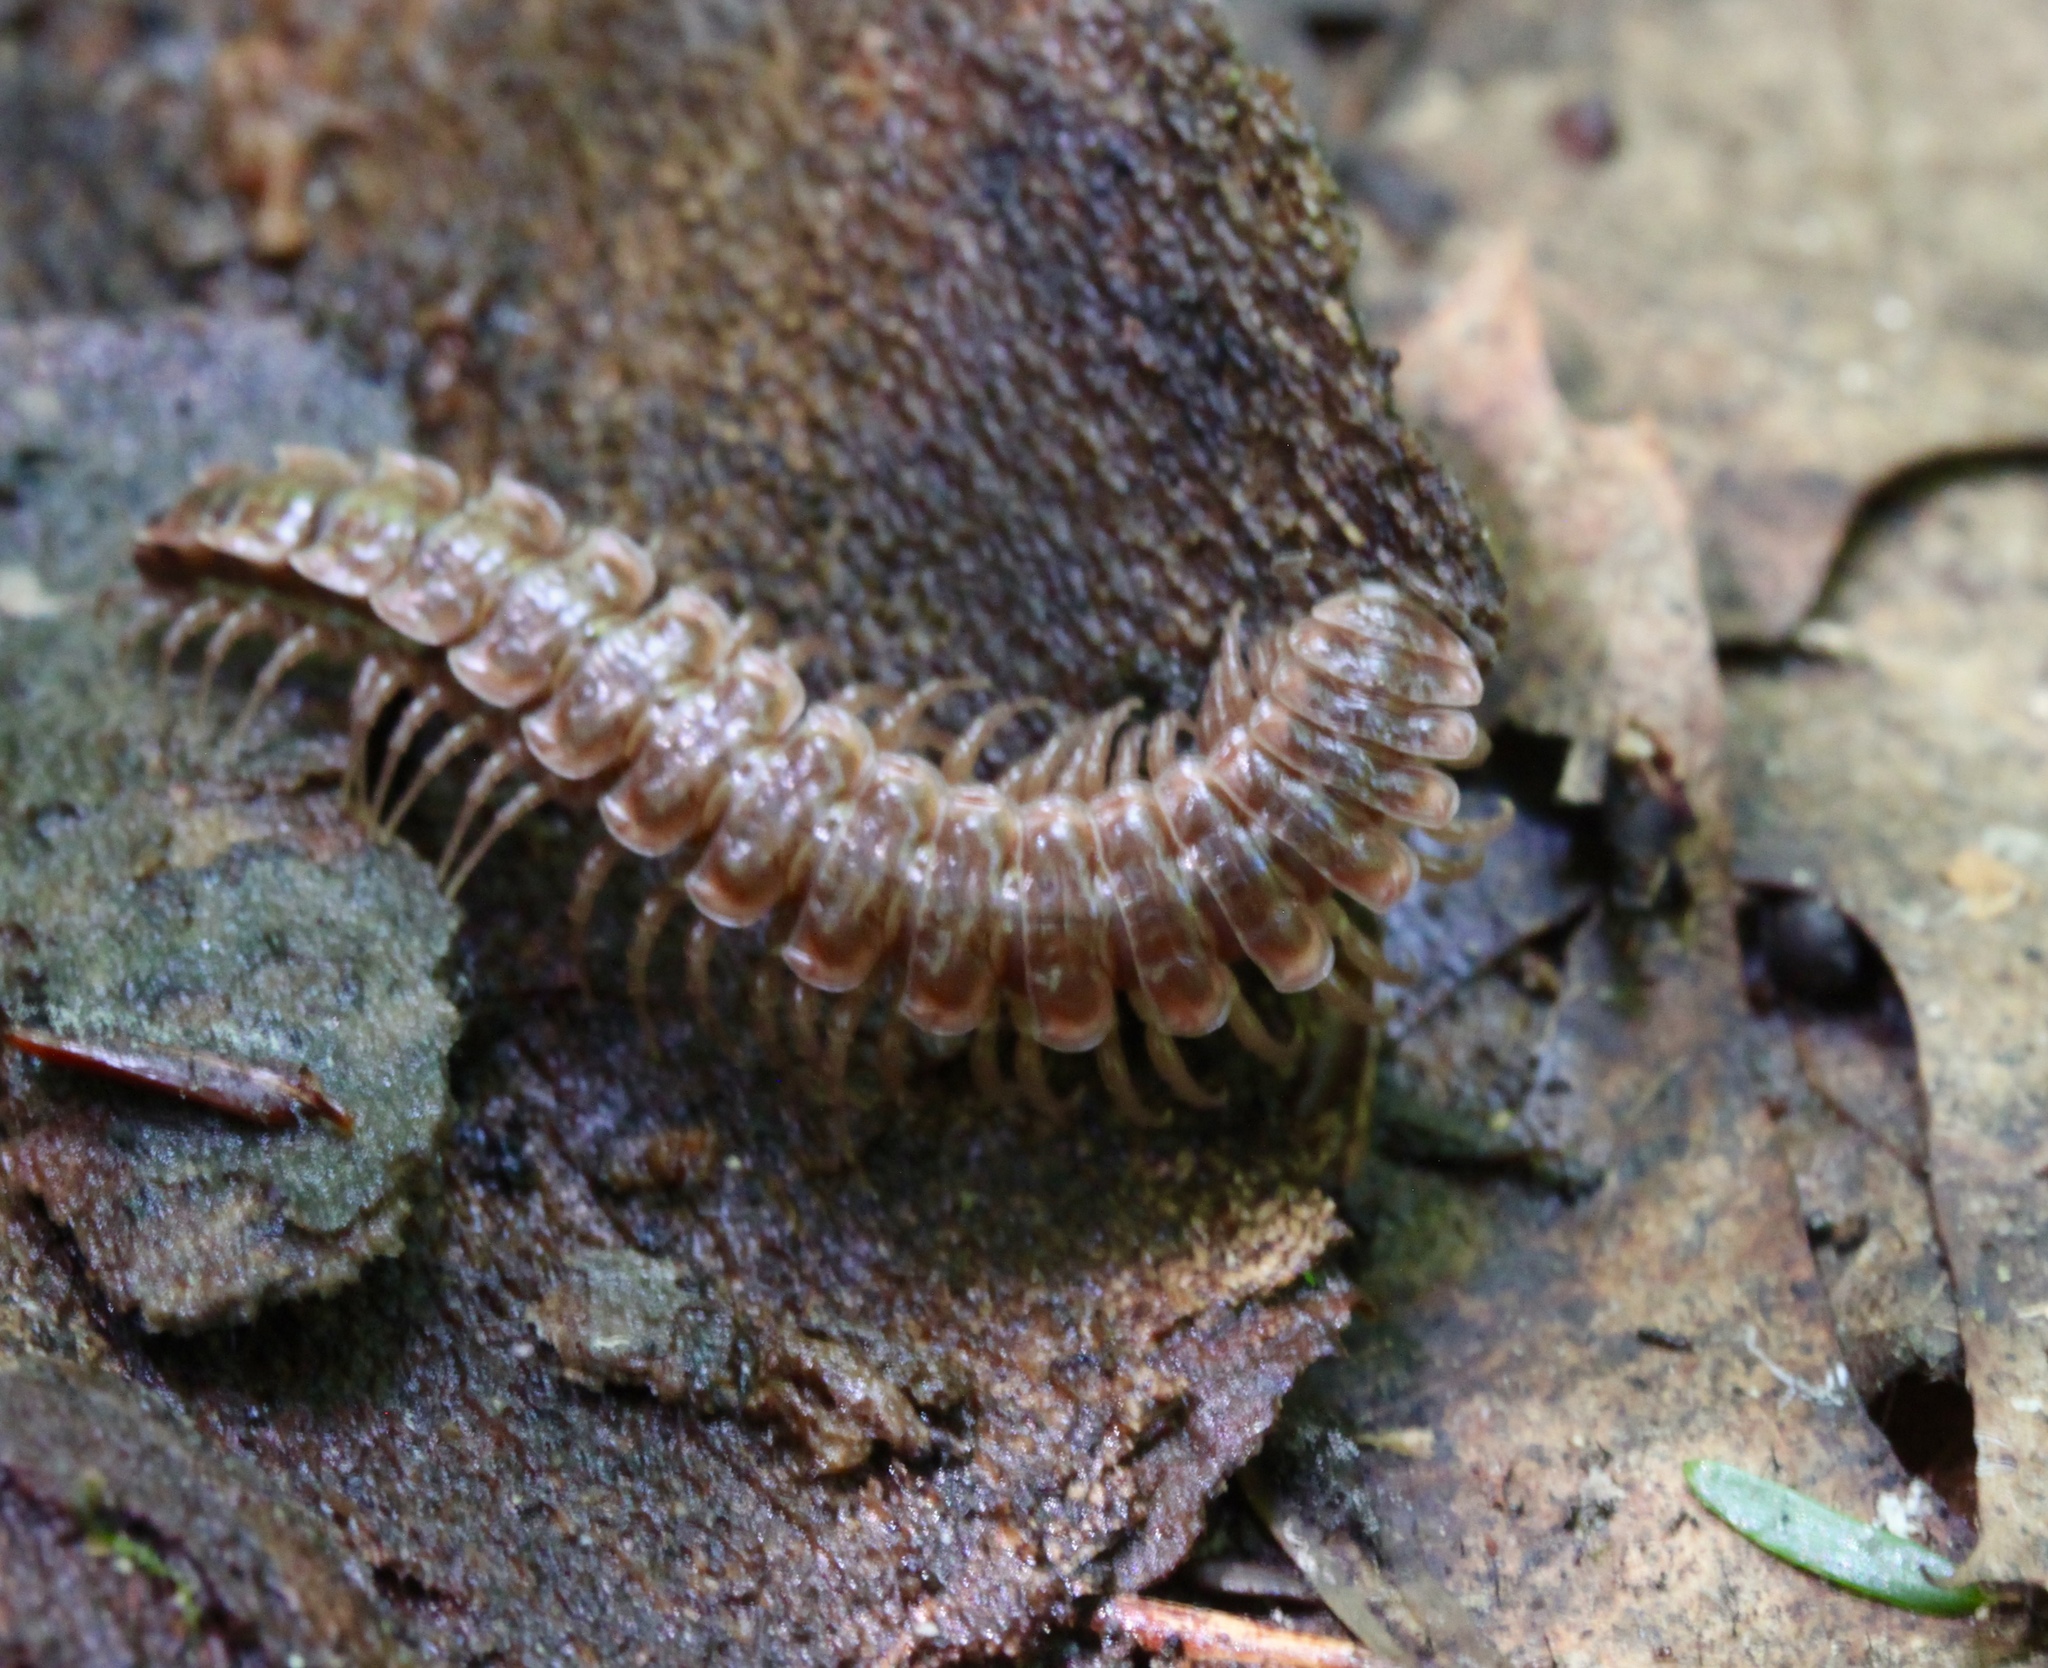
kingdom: Animalia
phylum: Arthropoda
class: Diplopoda
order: Polydesmida
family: Polydesmidae
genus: Pseudopolydesmus
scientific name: Pseudopolydesmus serratus
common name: Common pink flat-back millipede
